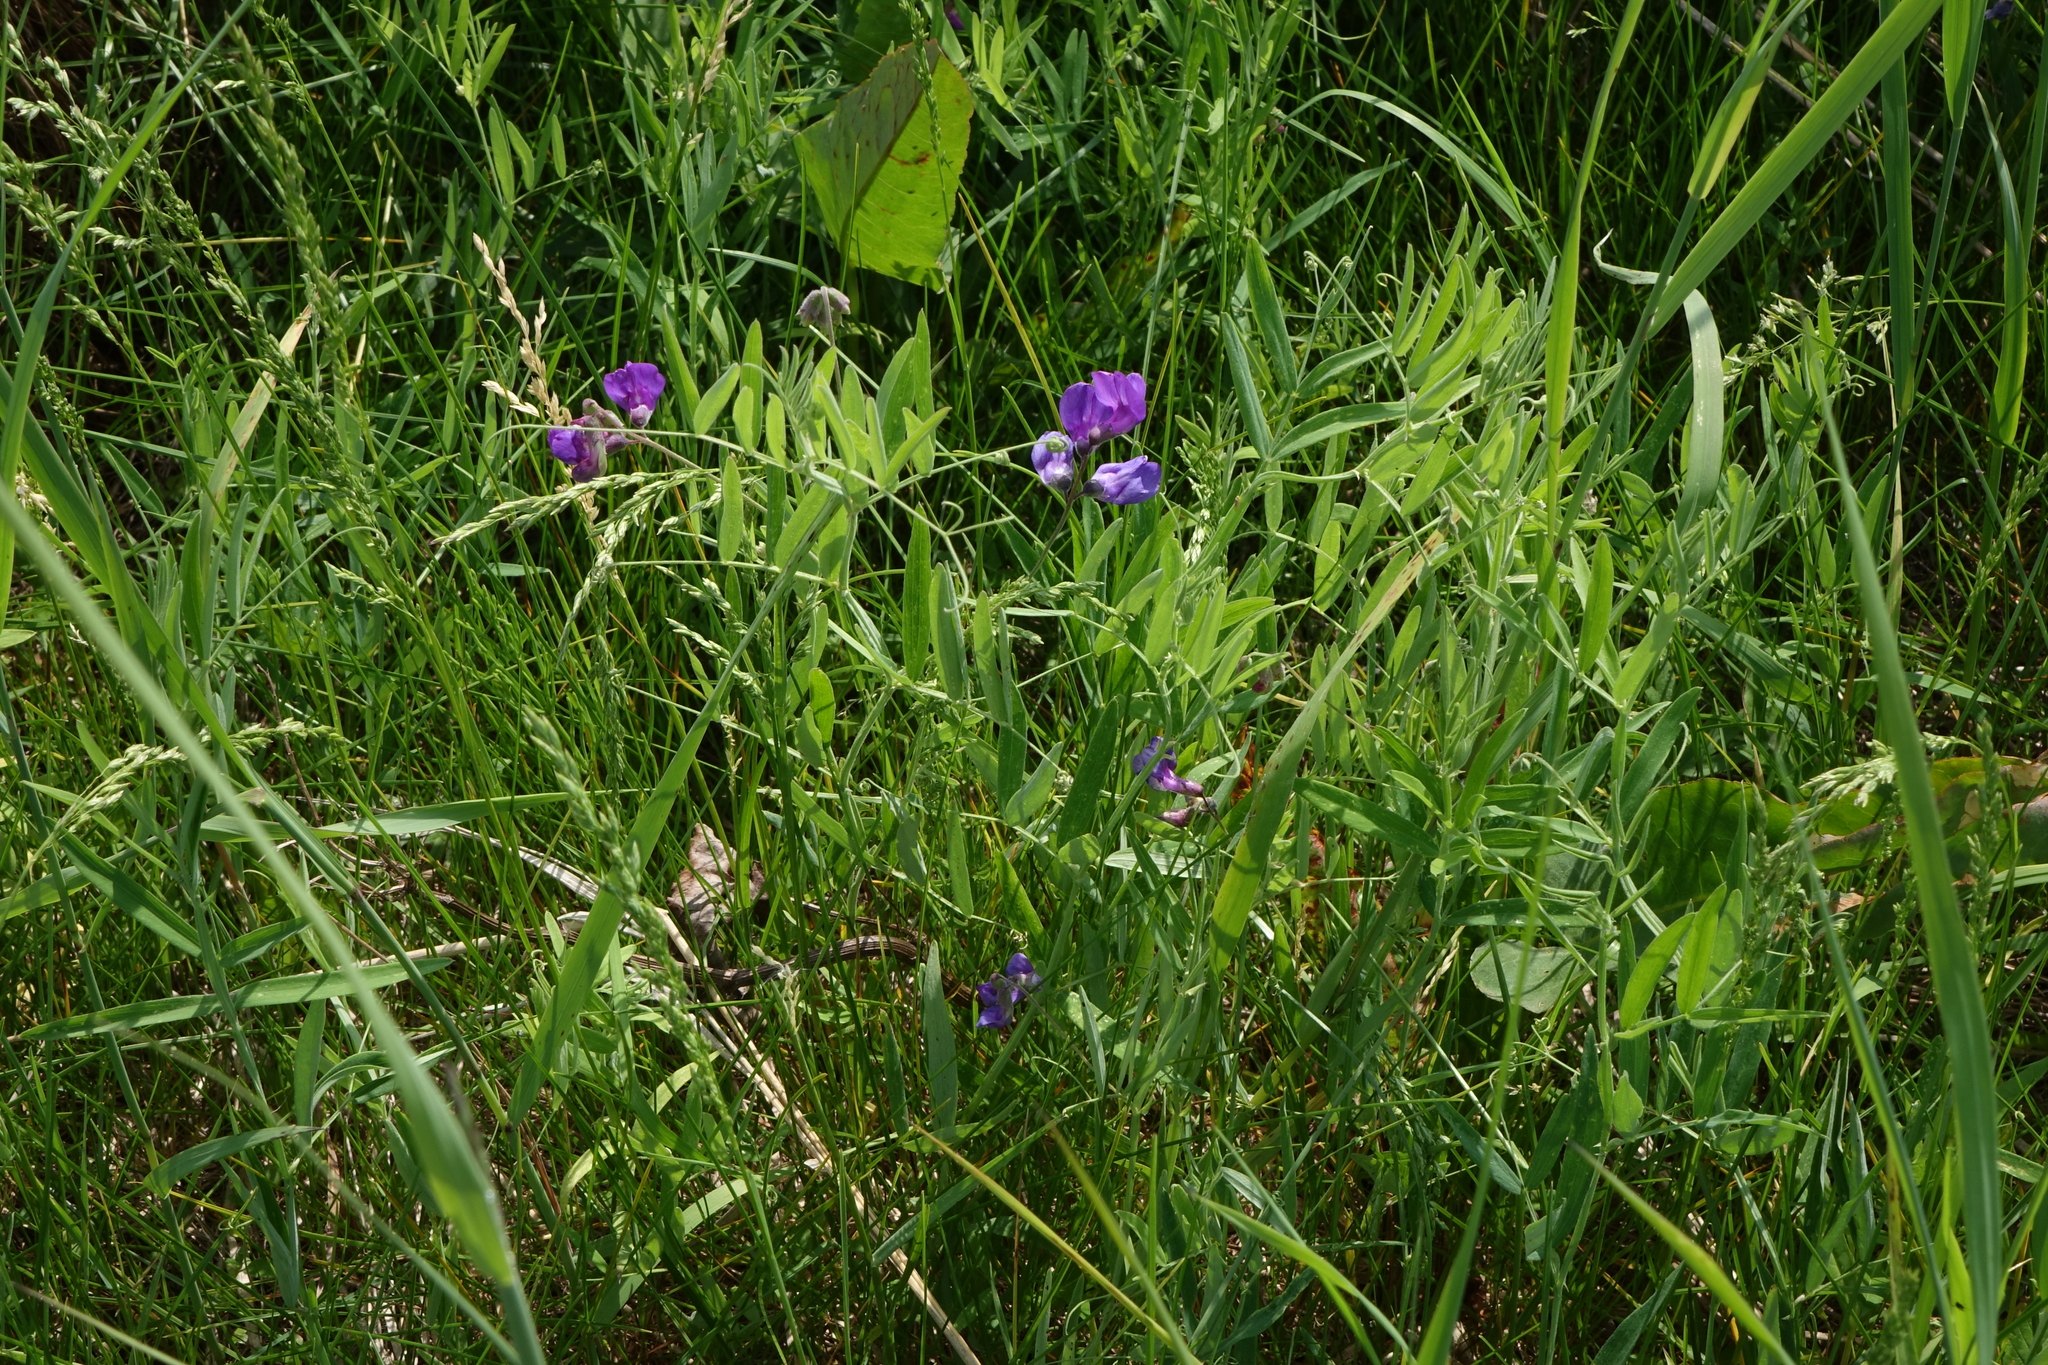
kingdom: Plantae
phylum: Tracheophyta
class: Magnoliopsida
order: Fabales
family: Fabaceae
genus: Lathyrus
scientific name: Lathyrus palustris
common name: Marsh pea
